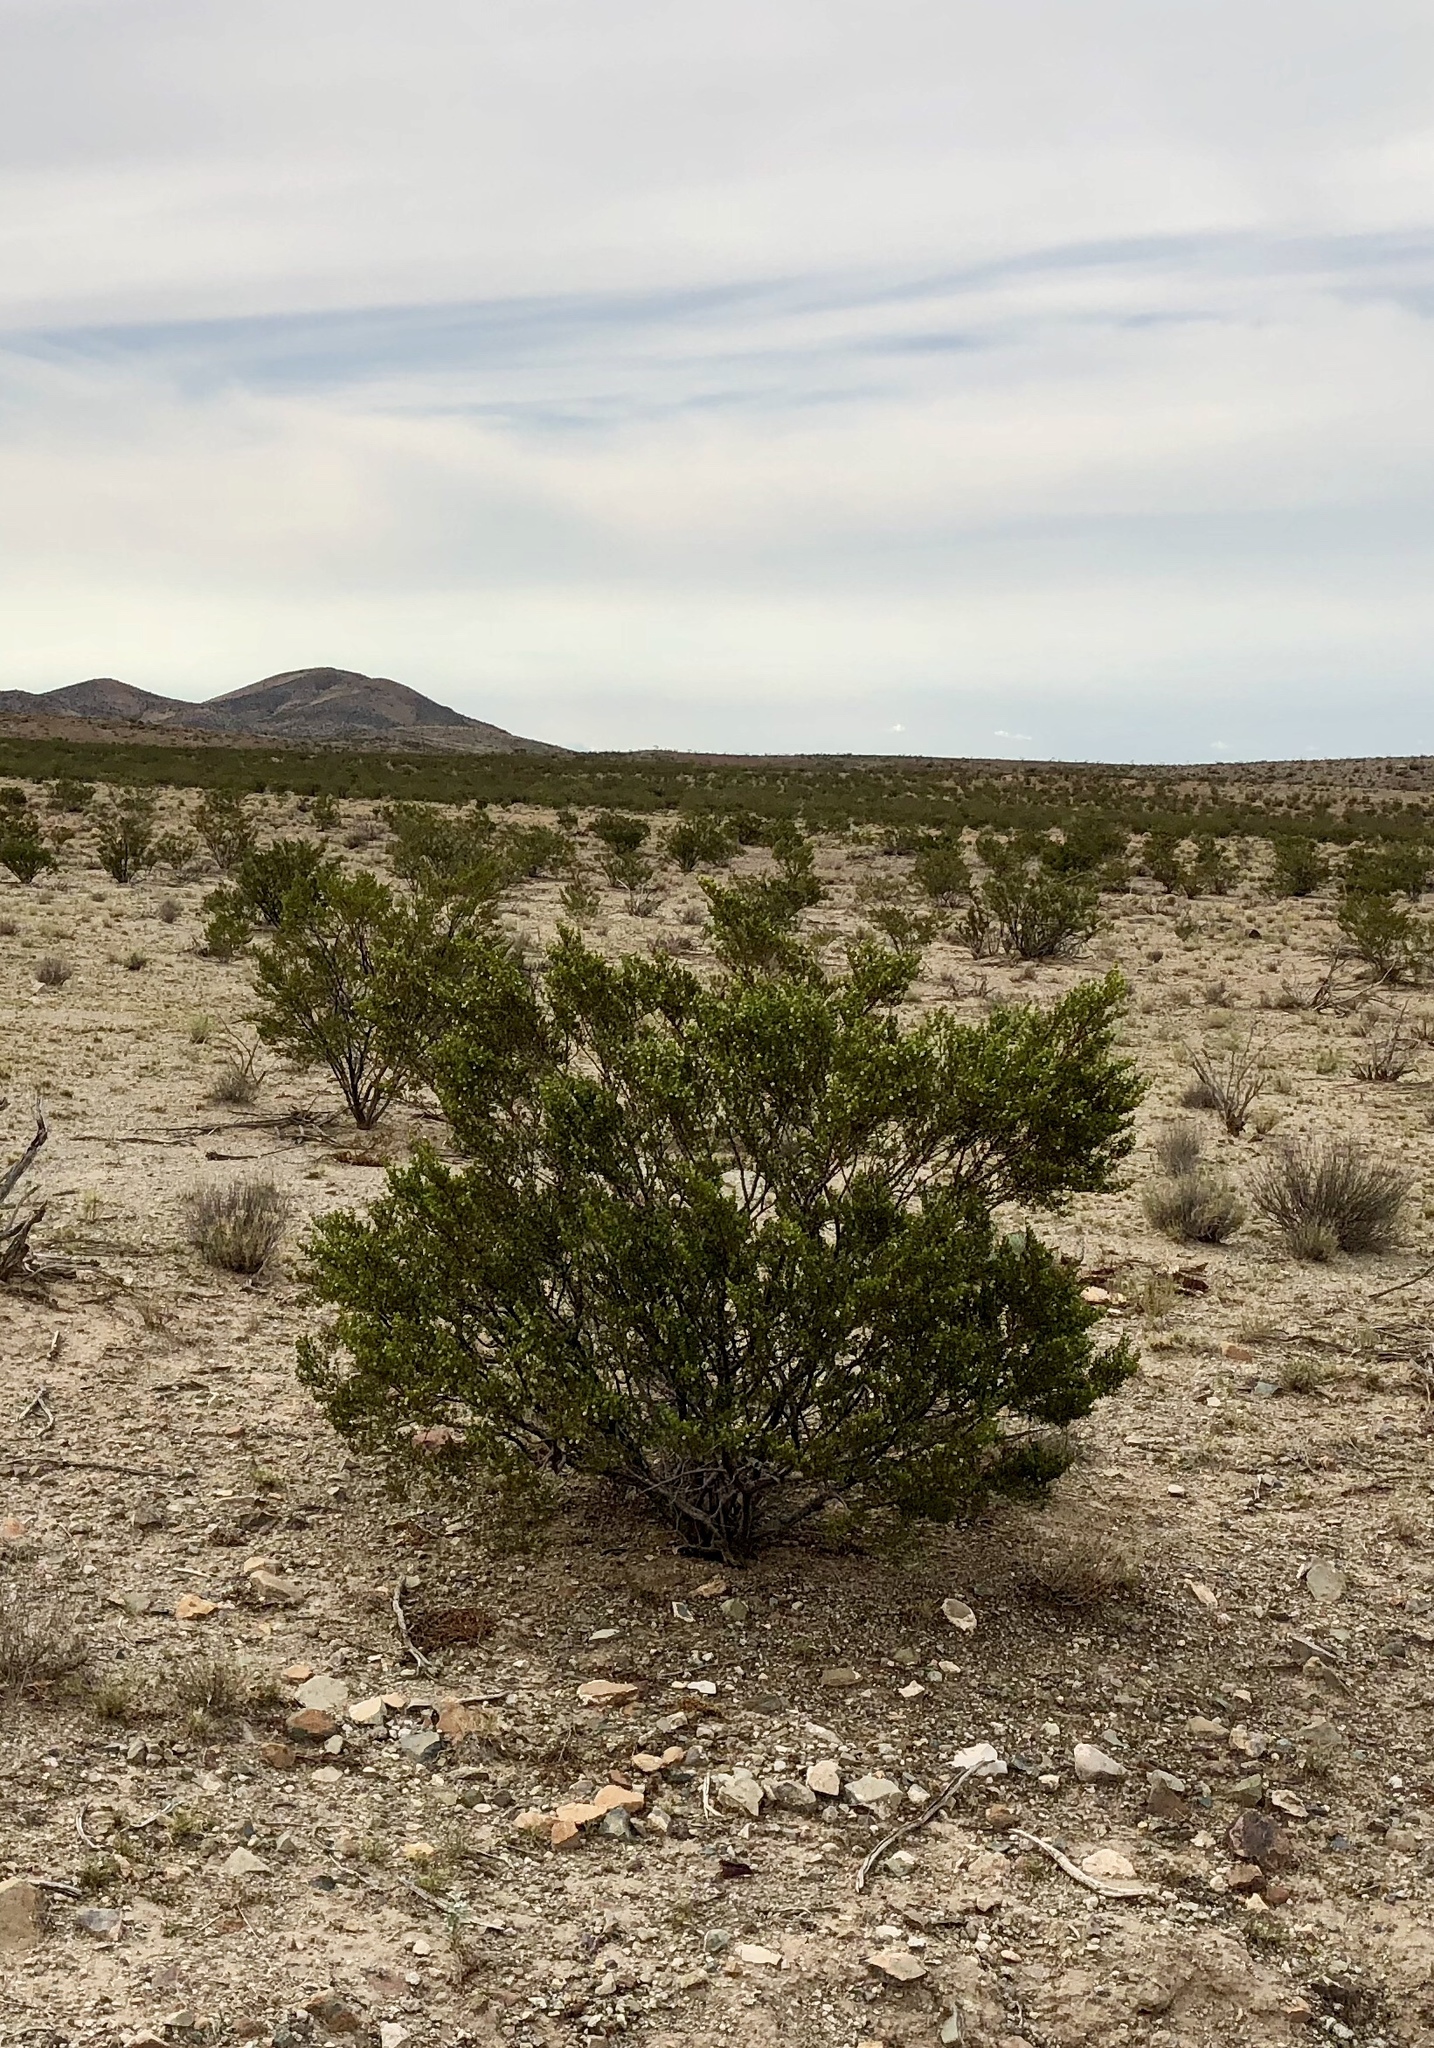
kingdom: Plantae
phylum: Tracheophyta
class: Magnoliopsida
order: Zygophyllales
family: Zygophyllaceae
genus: Larrea
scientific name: Larrea tridentata
